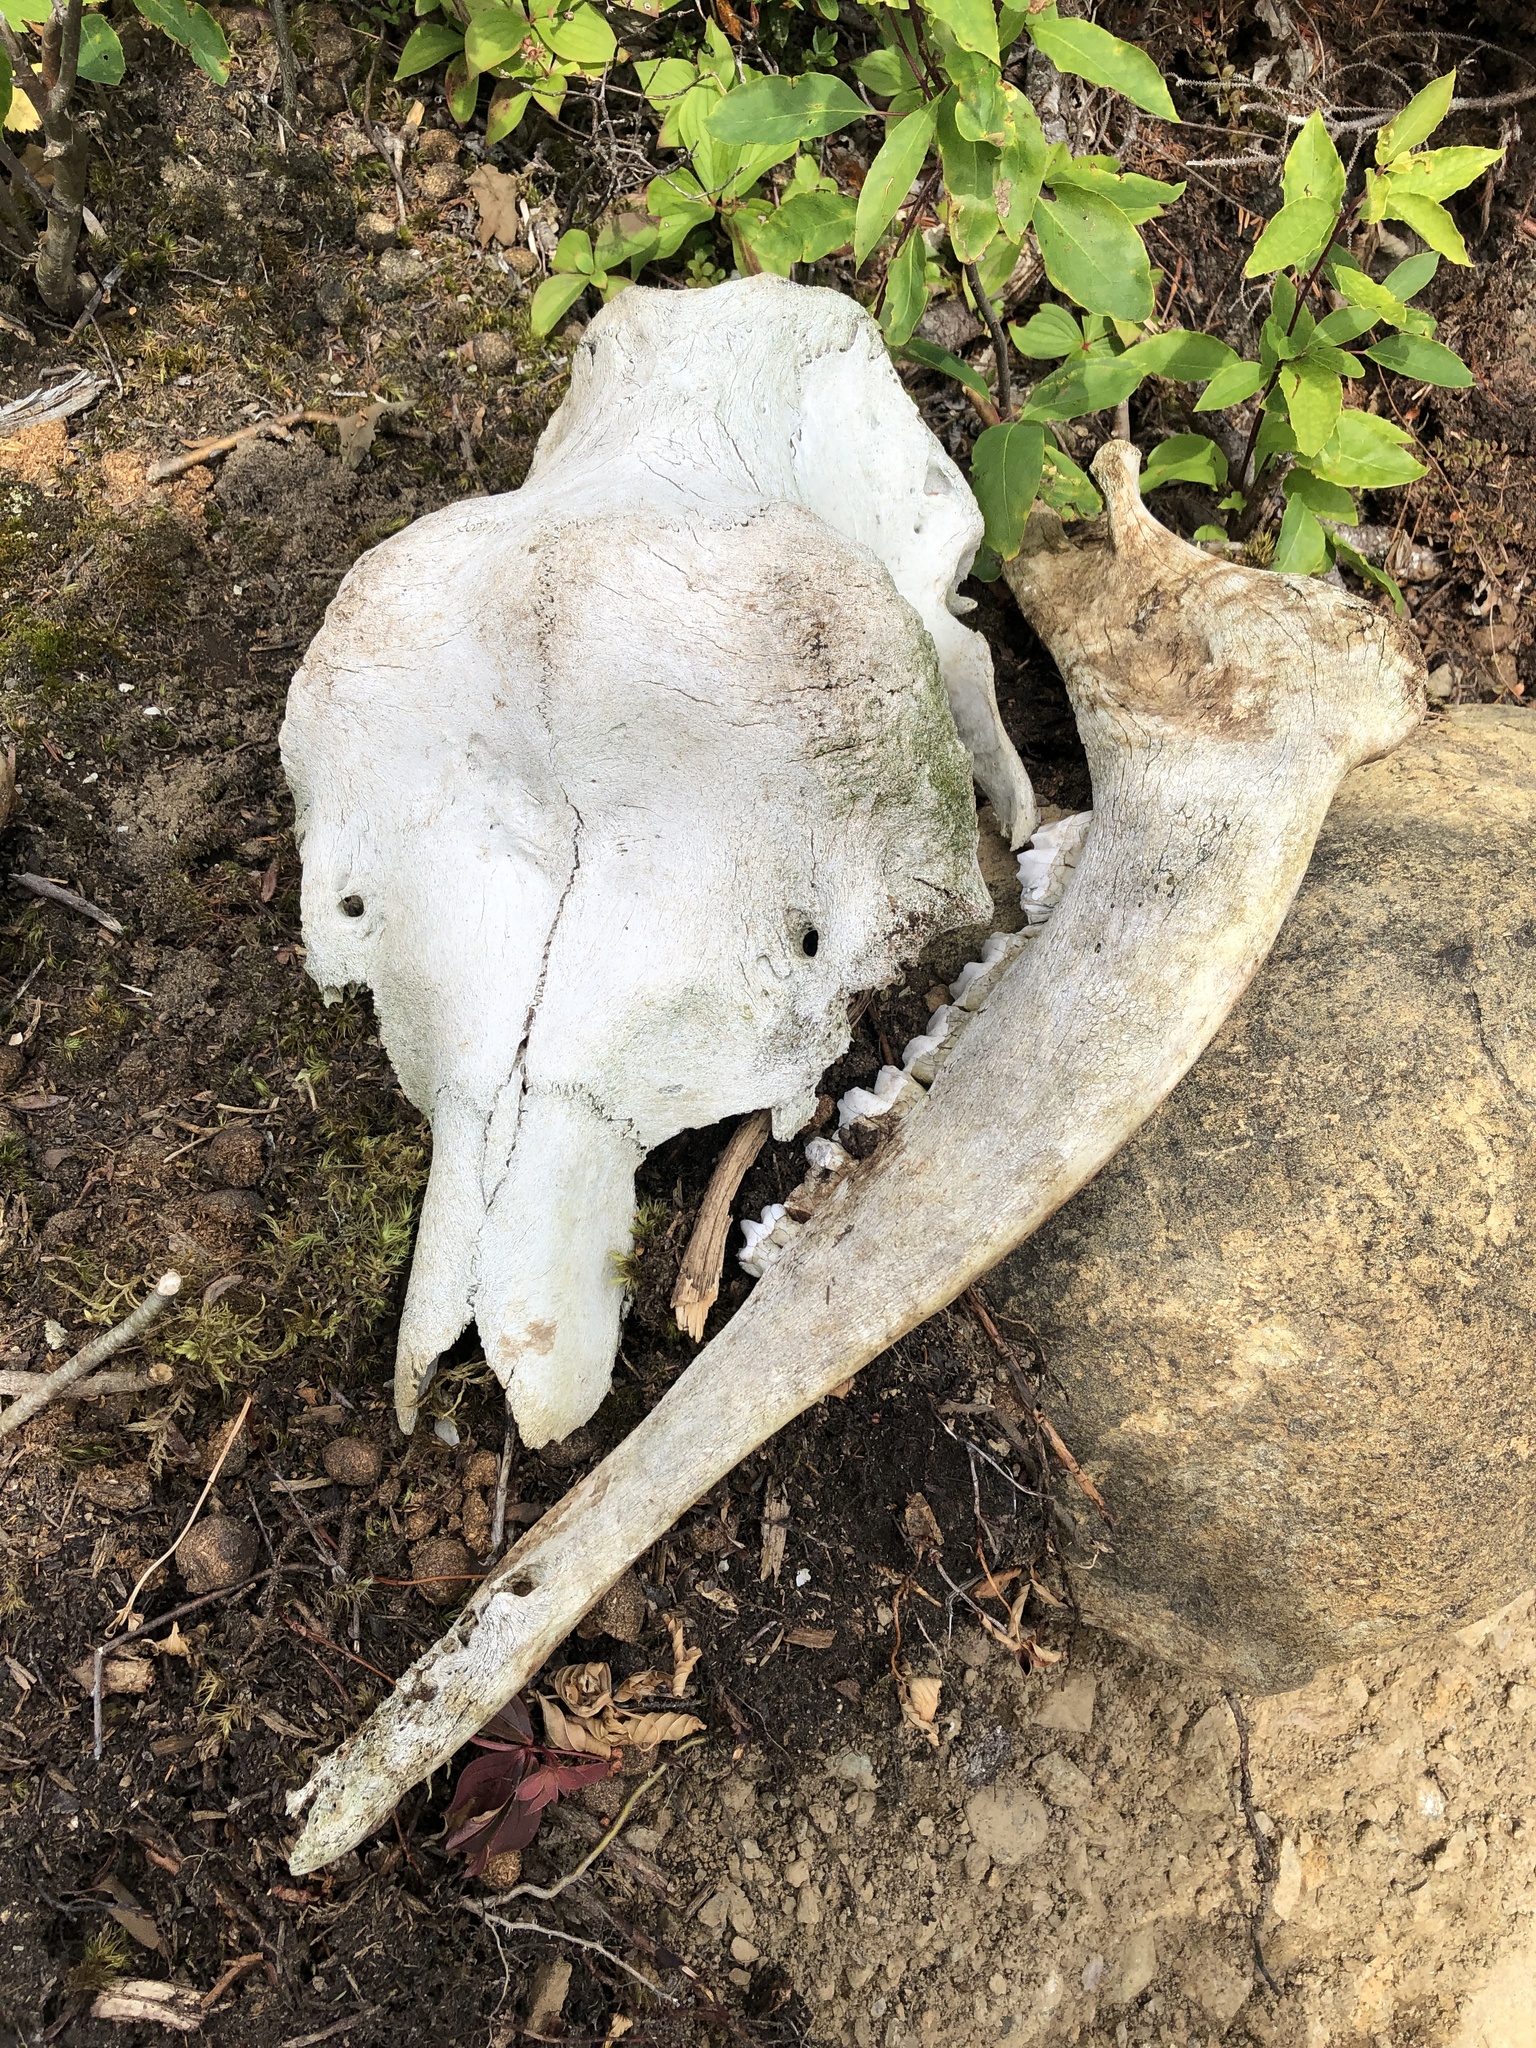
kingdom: Animalia
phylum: Chordata
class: Mammalia
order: Artiodactyla
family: Cervidae
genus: Alces
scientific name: Alces alces
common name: Moose
